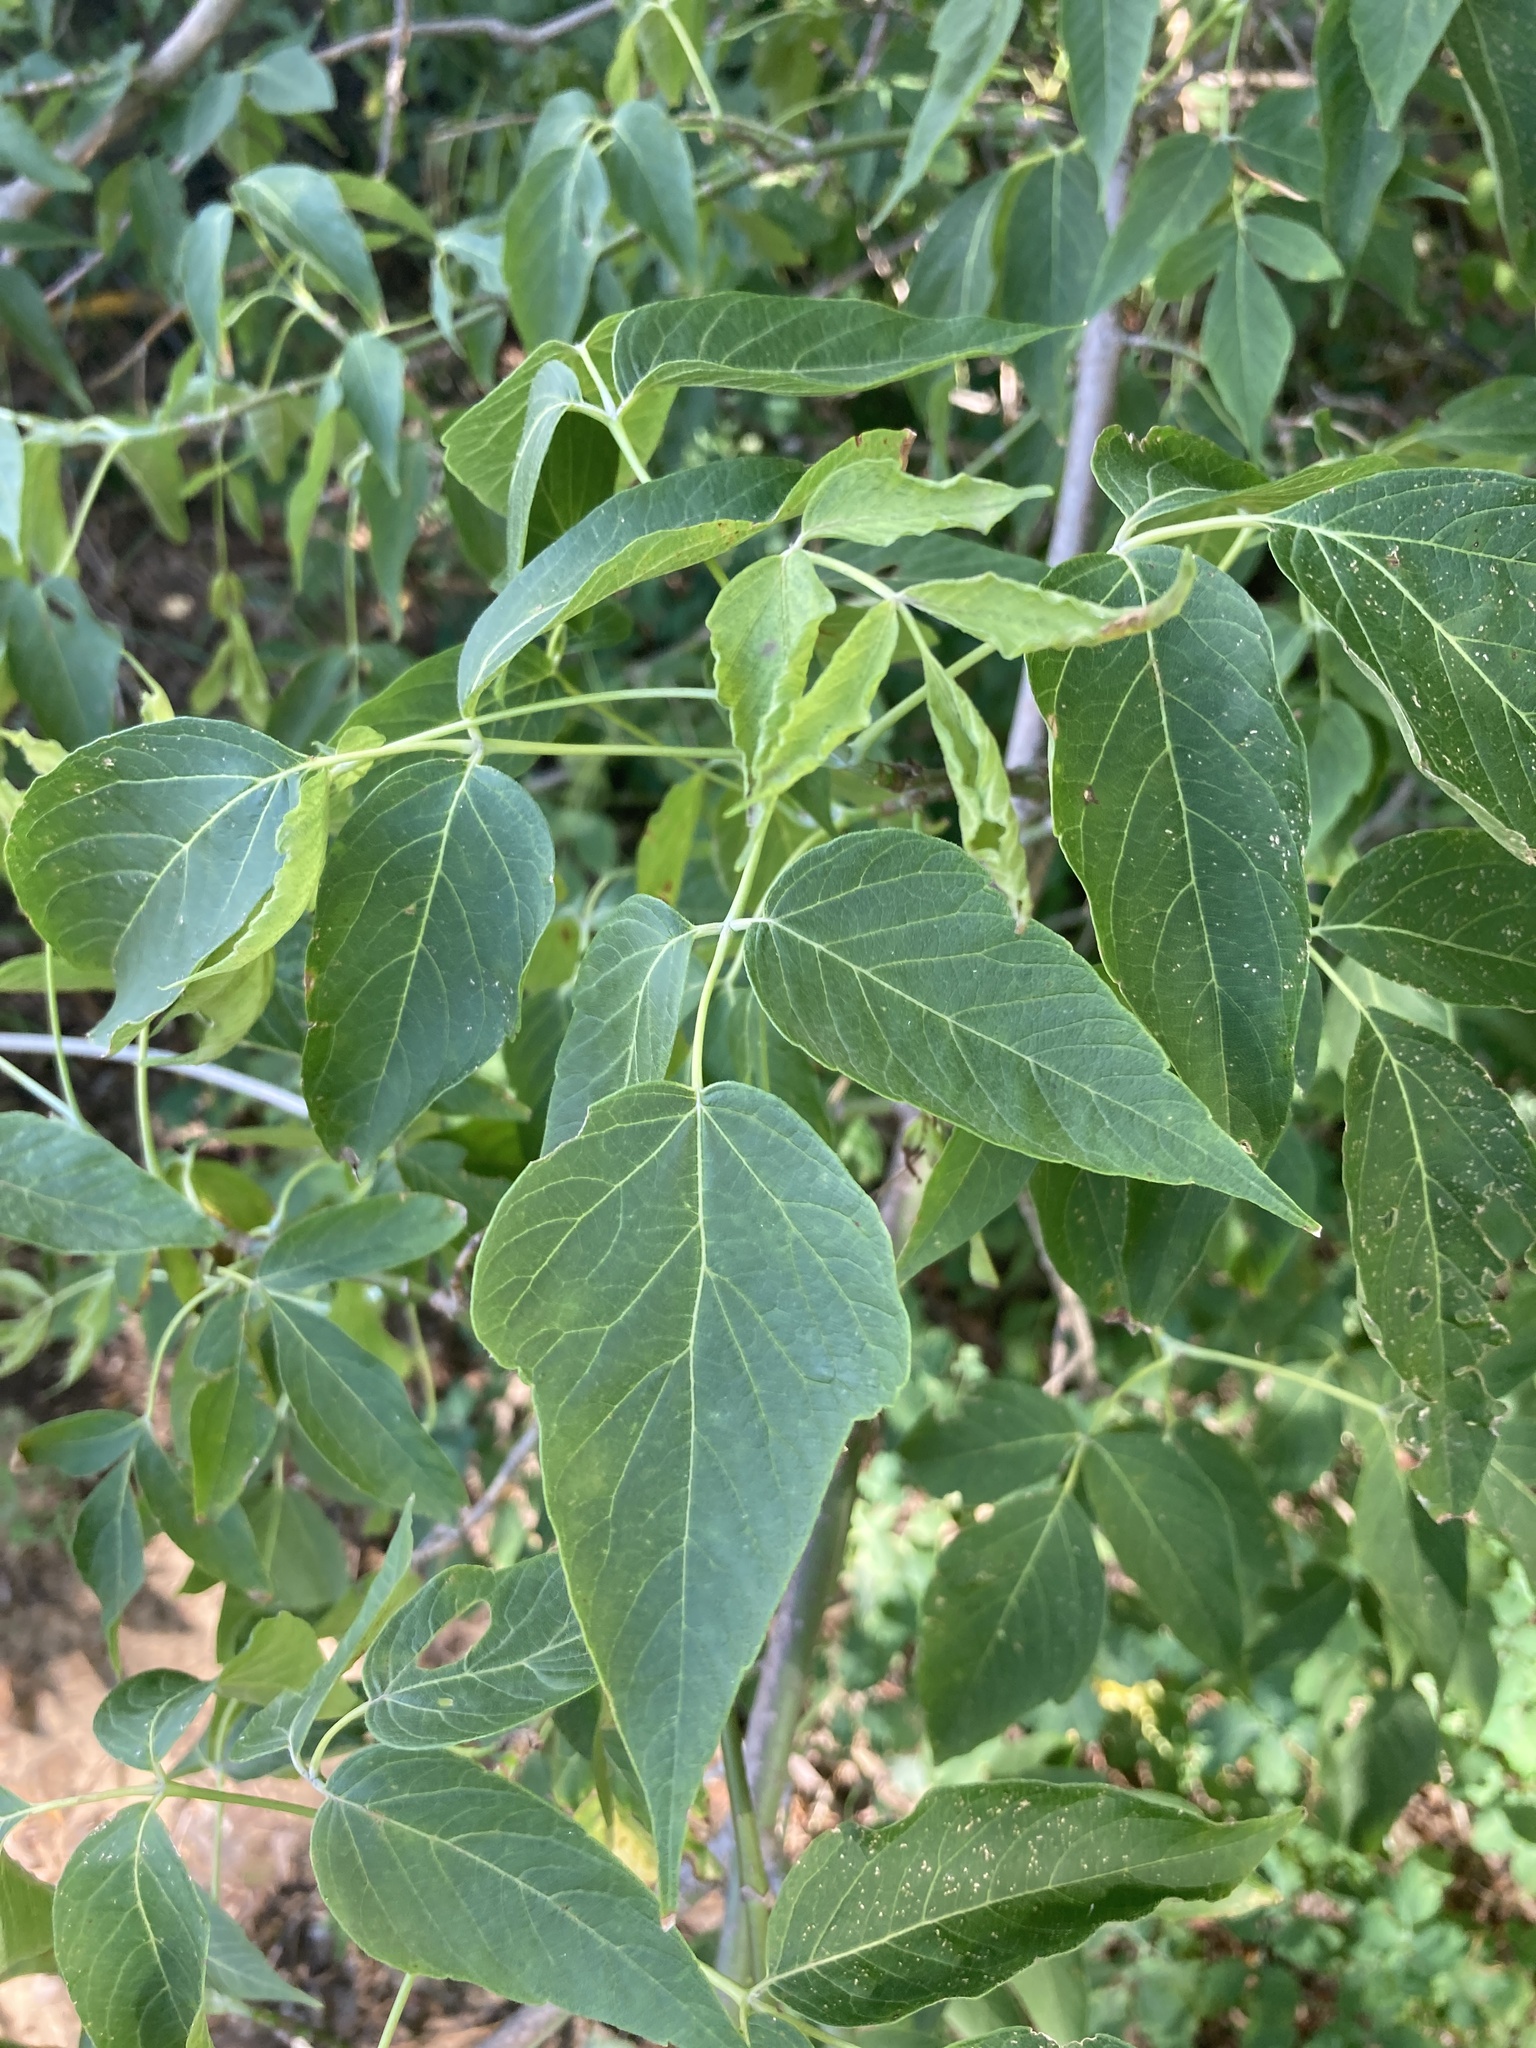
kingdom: Plantae
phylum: Tracheophyta
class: Magnoliopsida
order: Sapindales
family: Sapindaceae
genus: Acer
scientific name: Acer negundo
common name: Ashleaf maple
